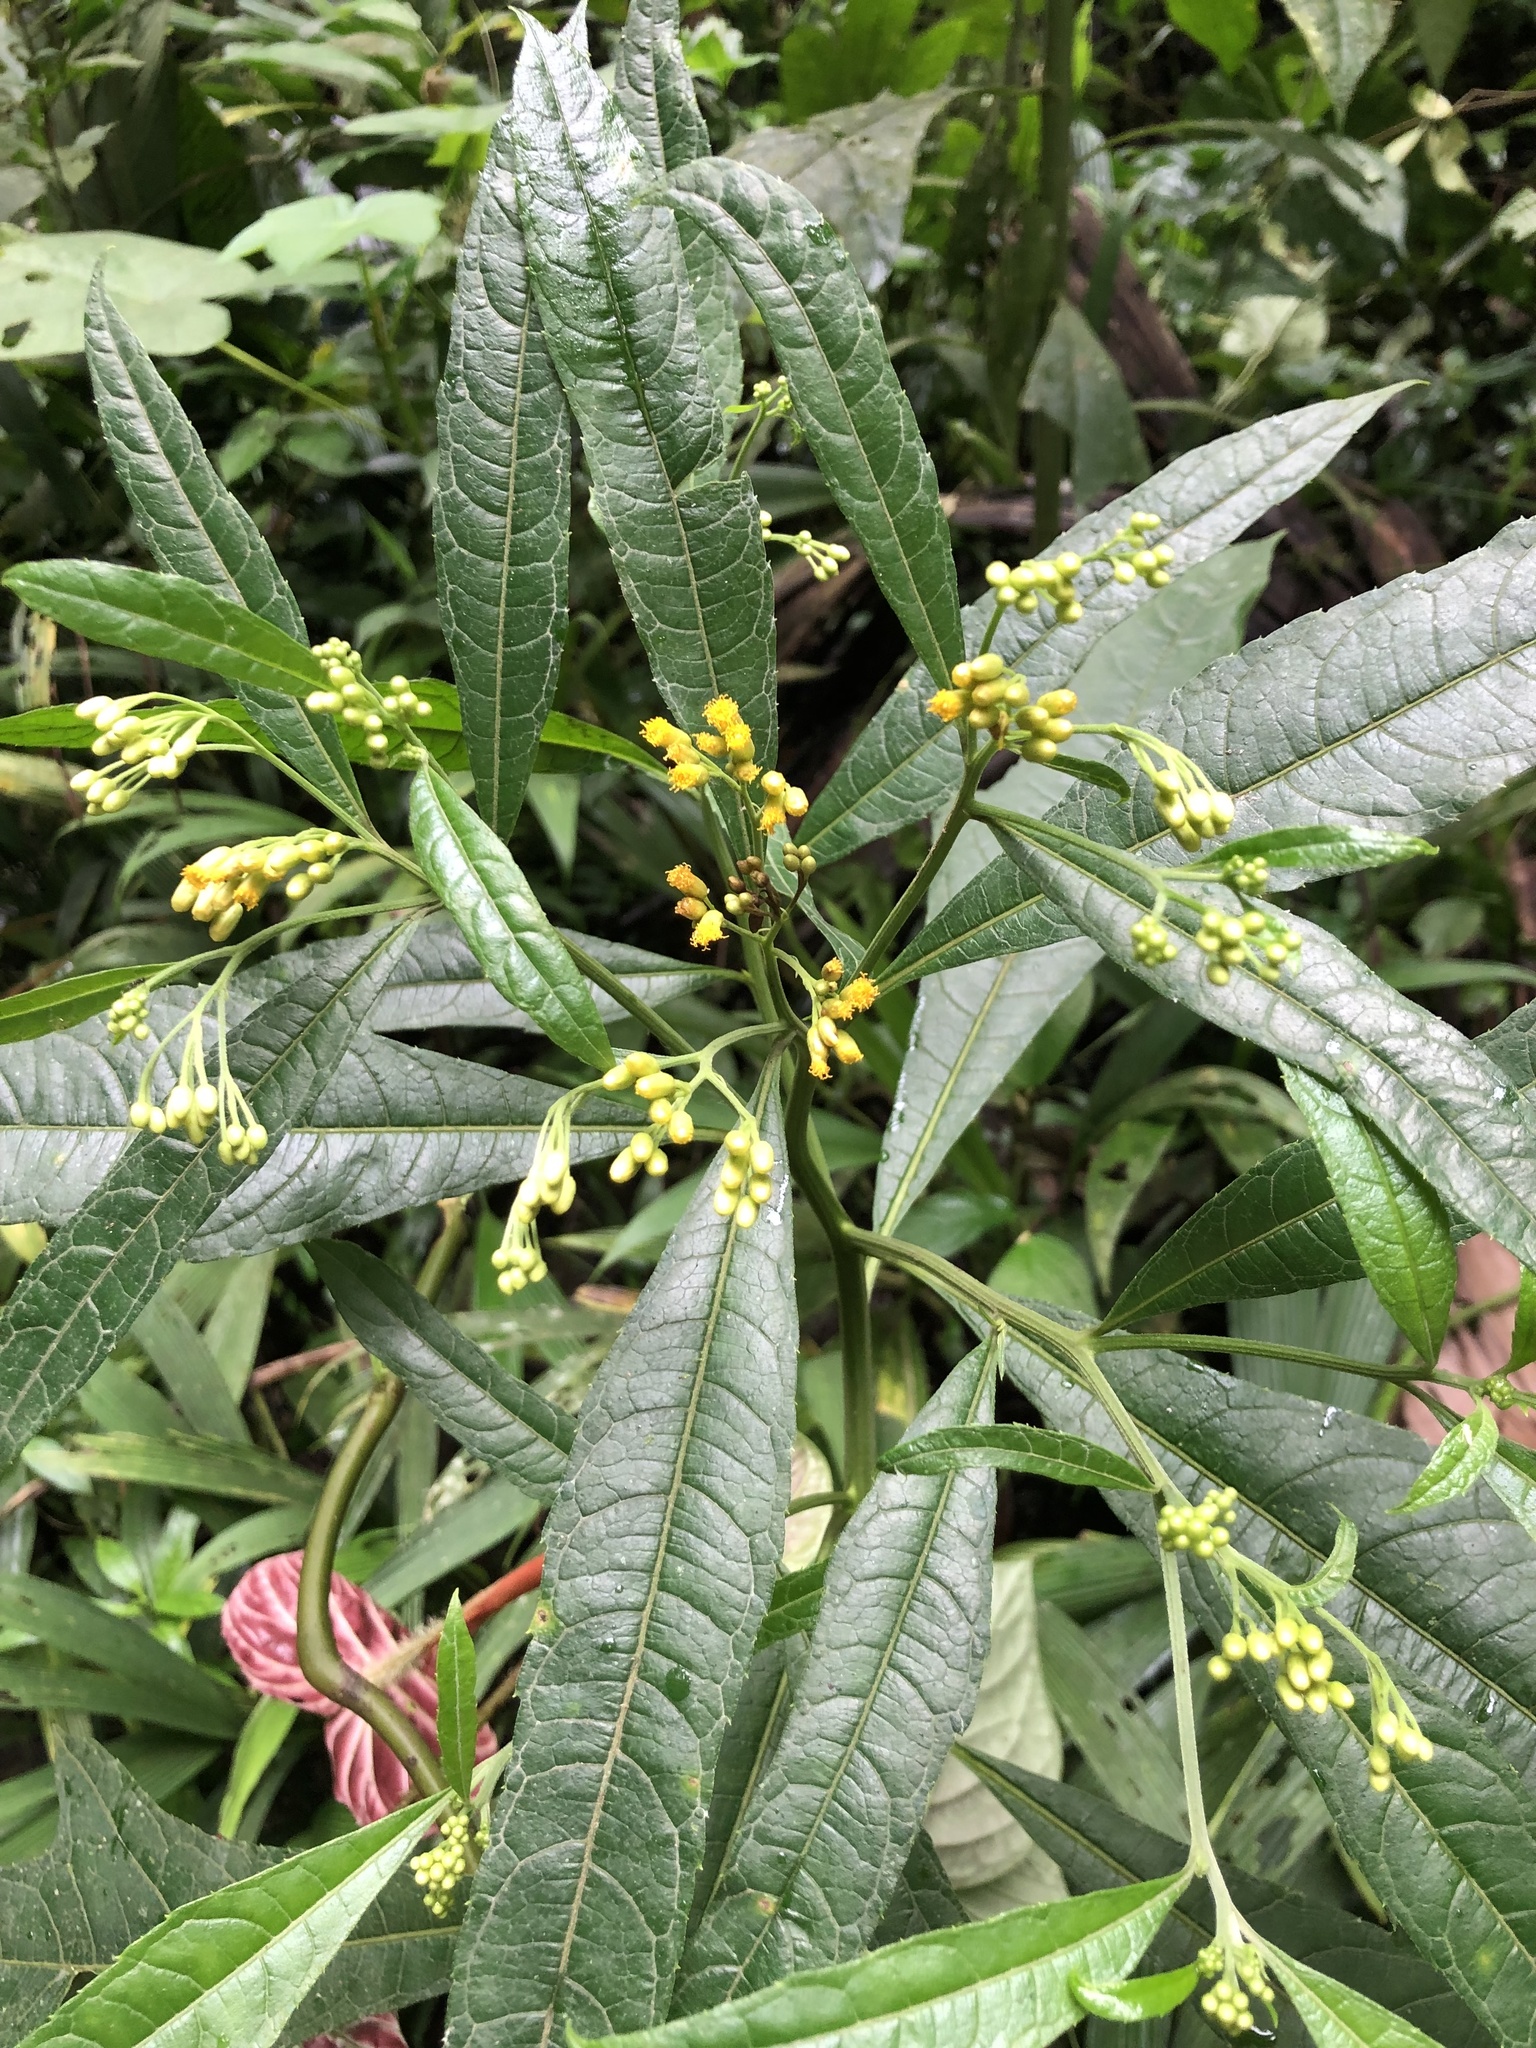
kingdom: Plantae
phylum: Tracheophyta
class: Magnoliopsida
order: Asterales
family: Asteraceae
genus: Neurolaena
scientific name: Neurolaena lobata
